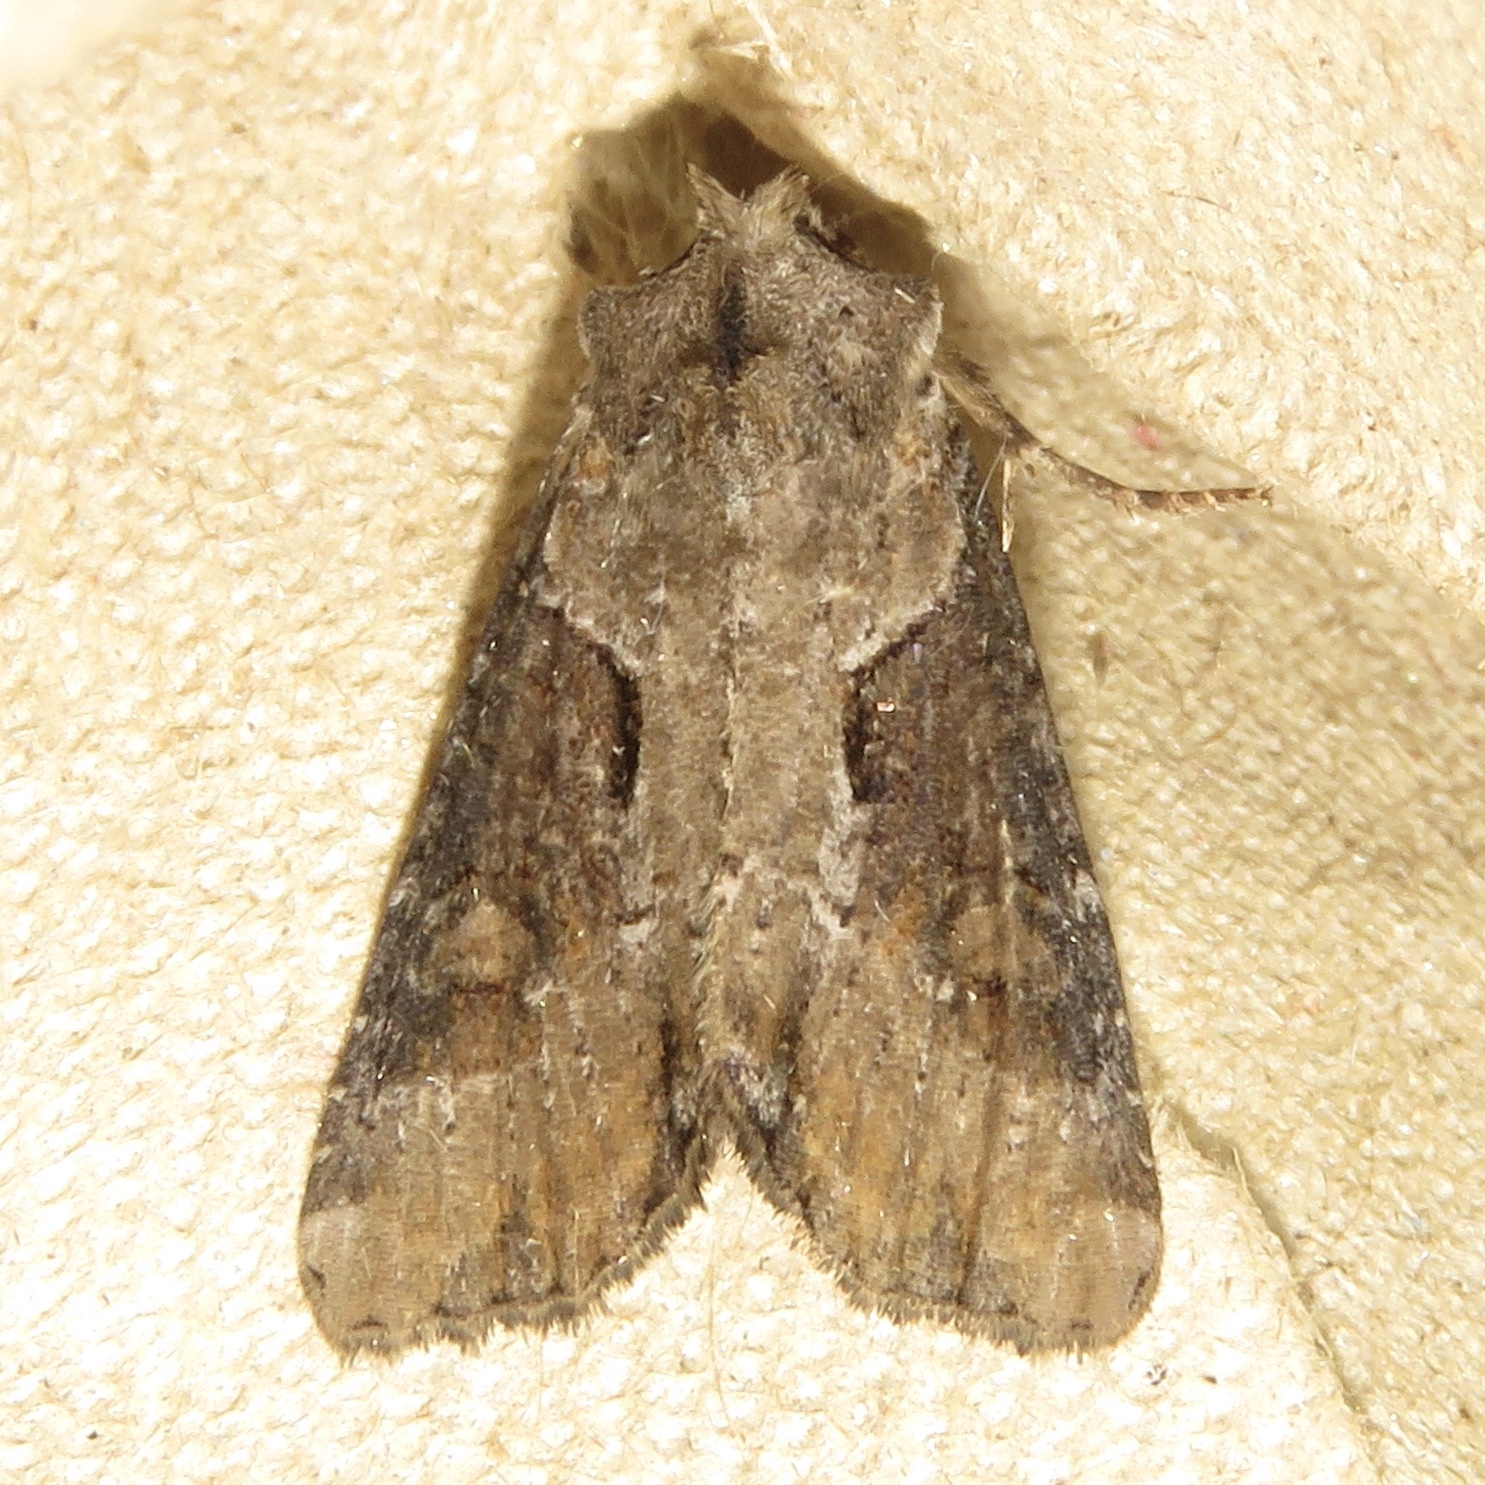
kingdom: Animalia
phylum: Arthropoda
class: Insecta
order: Lepidoptera
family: Noctuidae
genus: Lateroligia
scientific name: Lateroligia ophiogramma
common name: Double lobed
